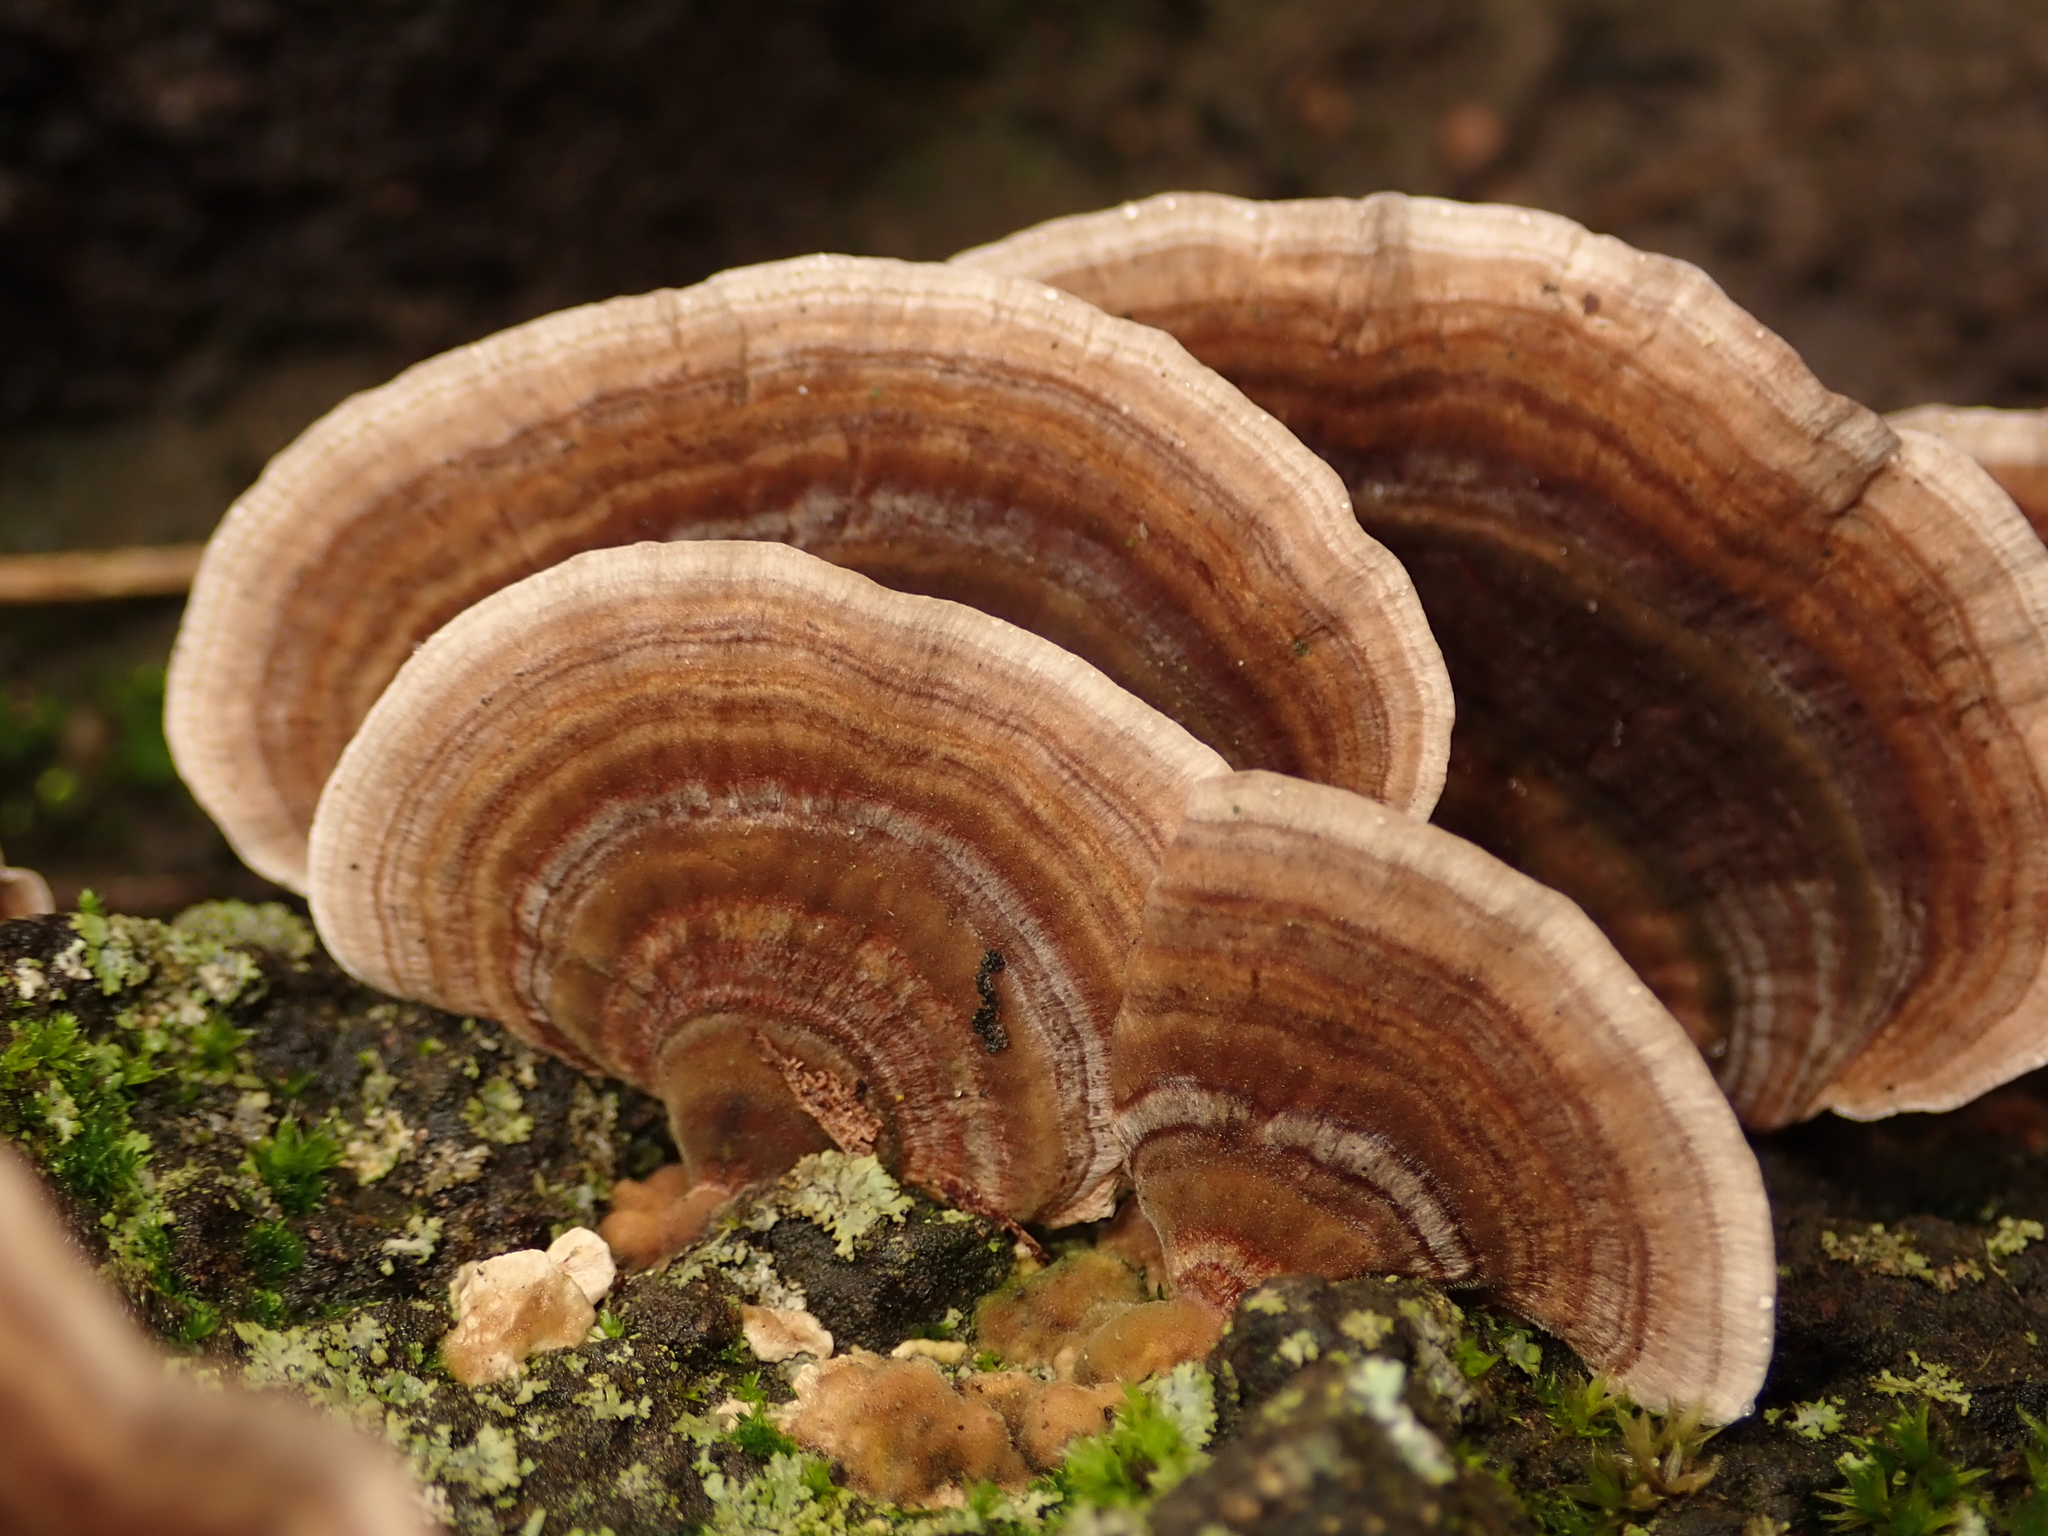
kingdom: Fungi
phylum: Basidiomycota
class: Agaricomycetes
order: Polyporales
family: Polyporaceae
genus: Trametes
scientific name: Trametes versicolor
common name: Turkeytail
